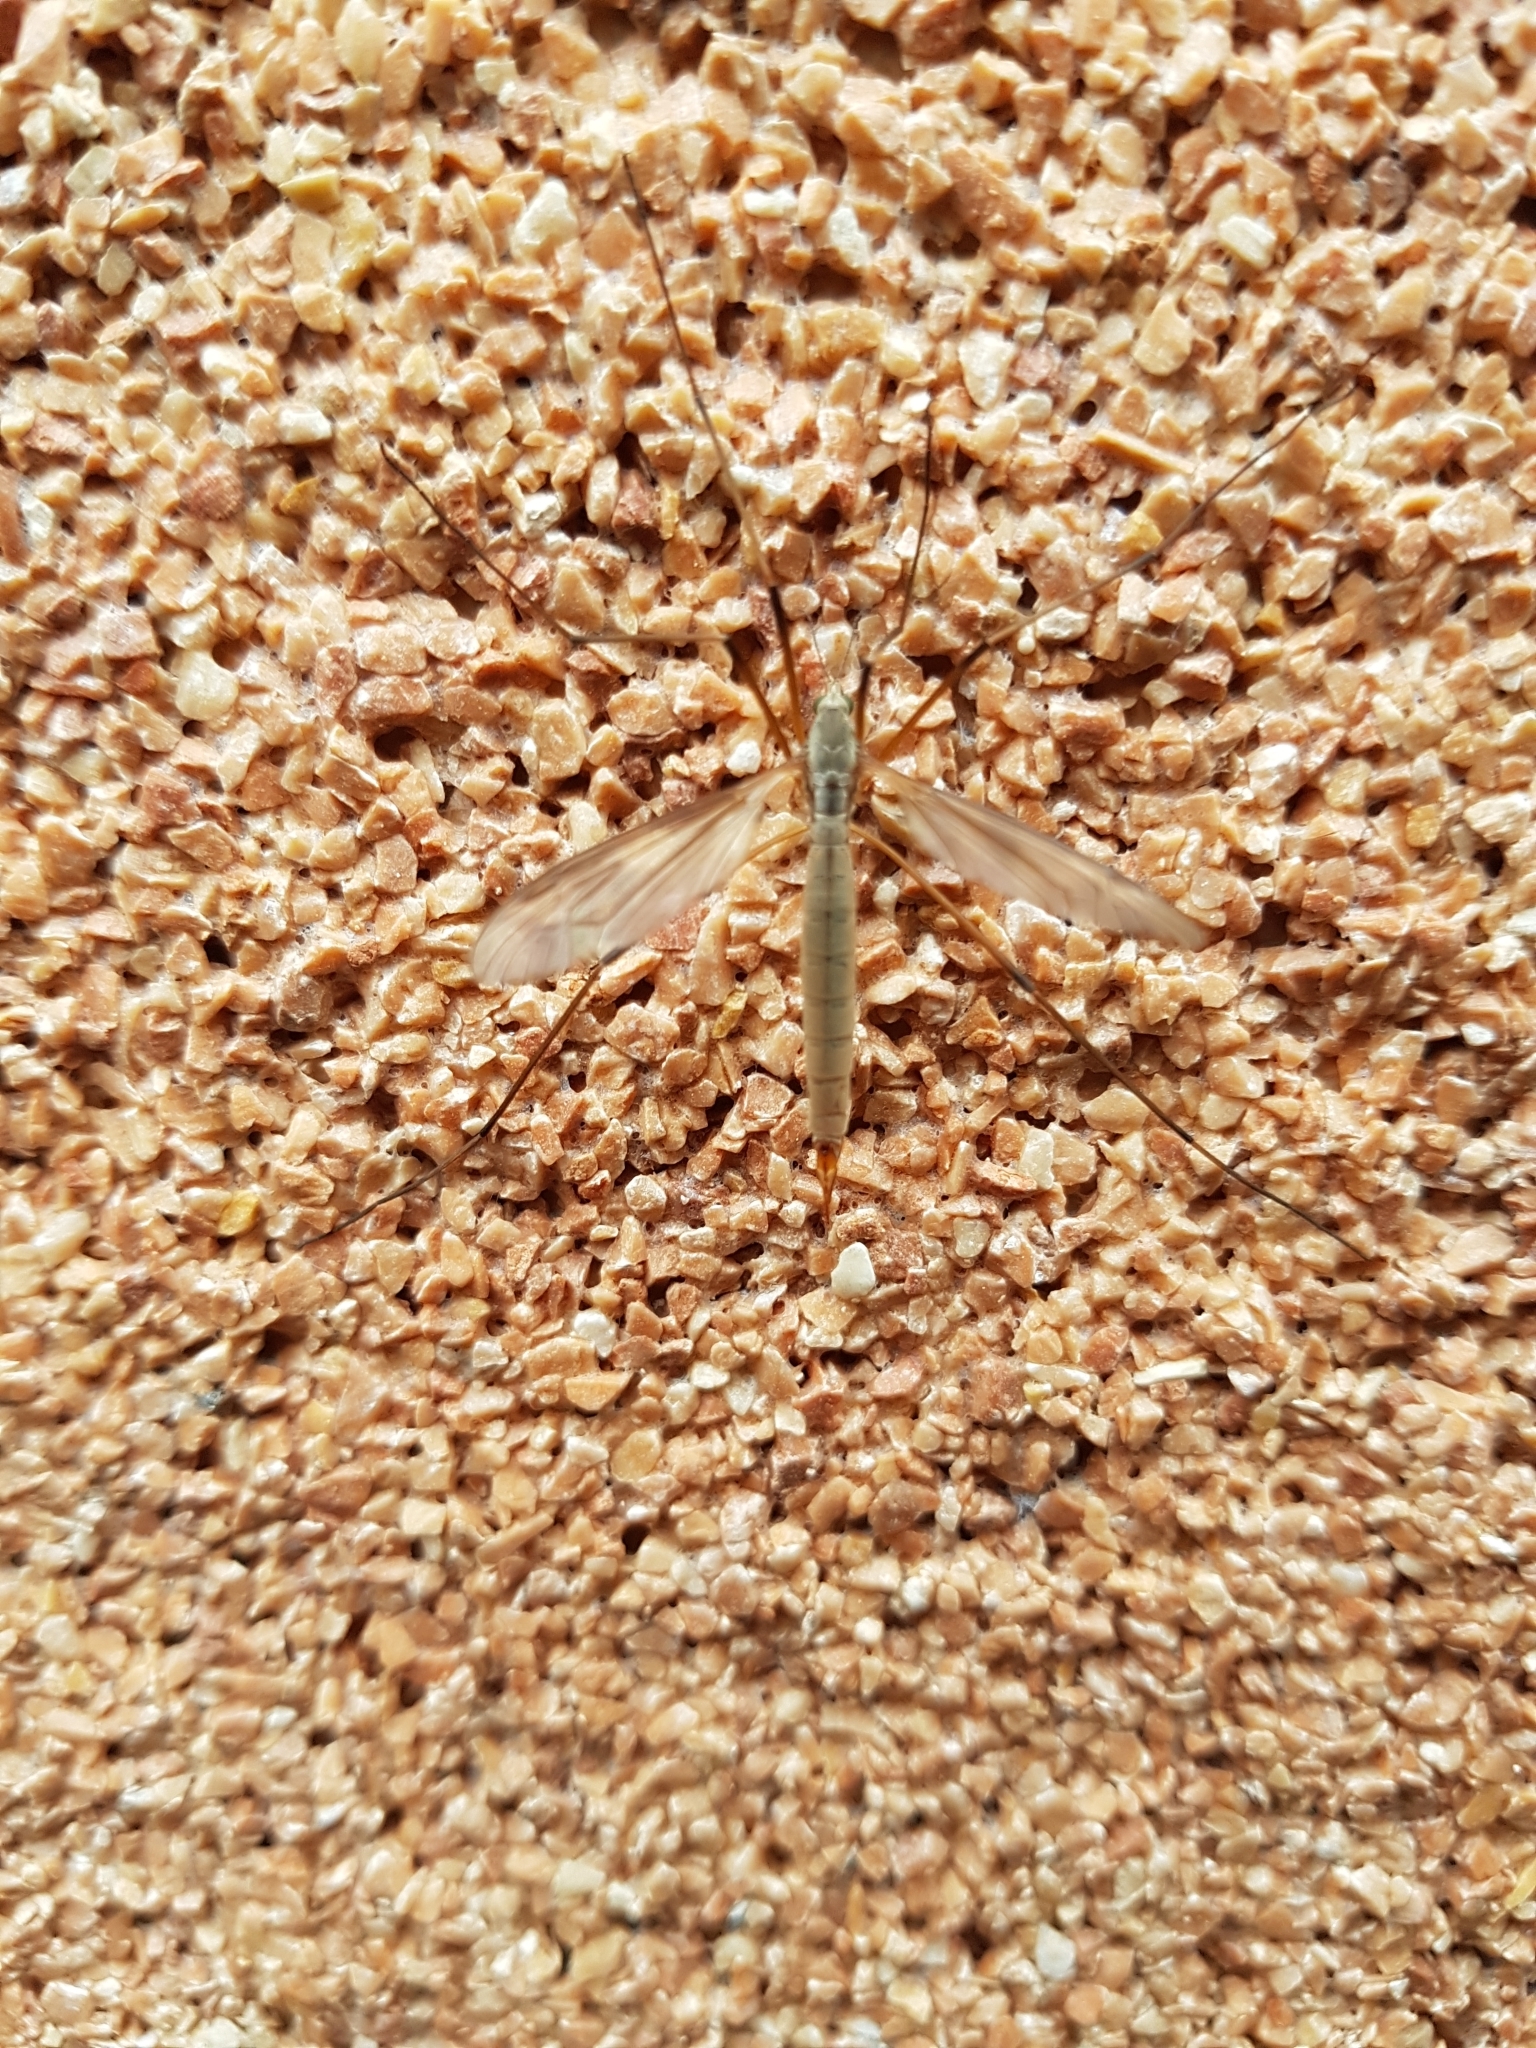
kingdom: Animalia
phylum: Arthropoda
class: Insecta
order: Diptera
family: Tipulidae
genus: Tipula
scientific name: Tipula paludosa
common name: European cranefly
